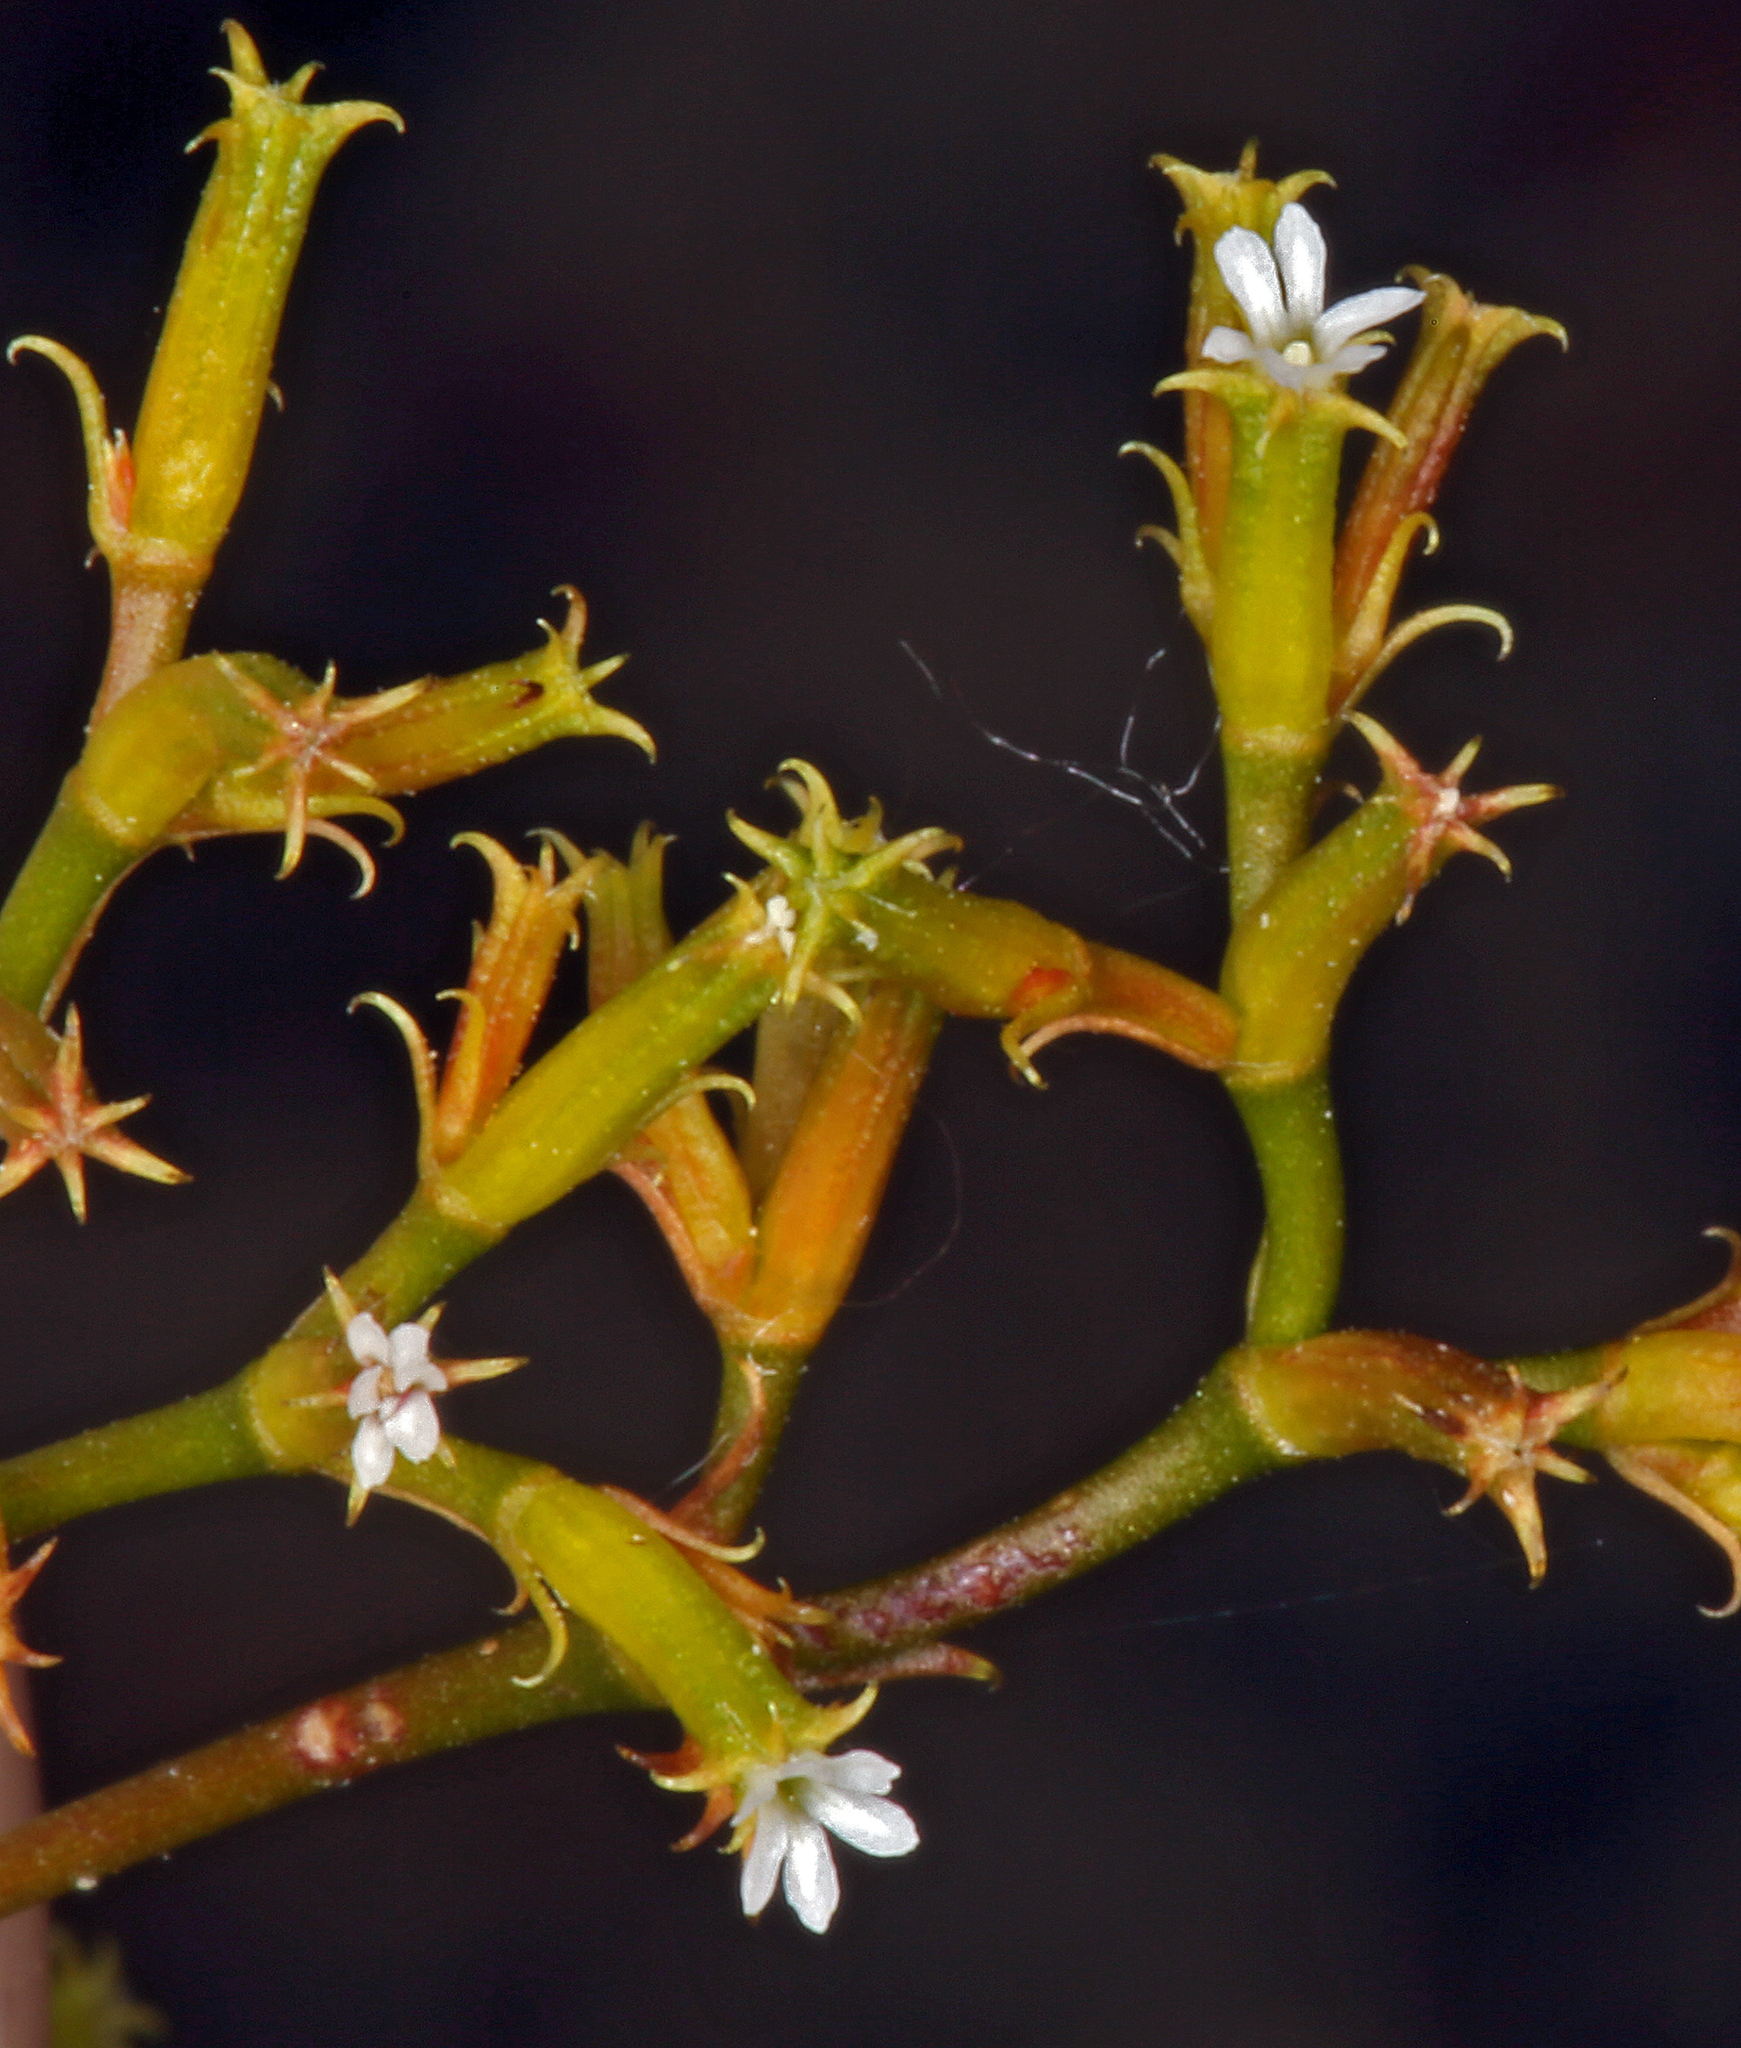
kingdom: Plantae
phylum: Tracheophyta
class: Magnoliopsida
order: Caryophyllales
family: Polygonaceae
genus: Chorizanthe
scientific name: Chorizanthe brevicornu
